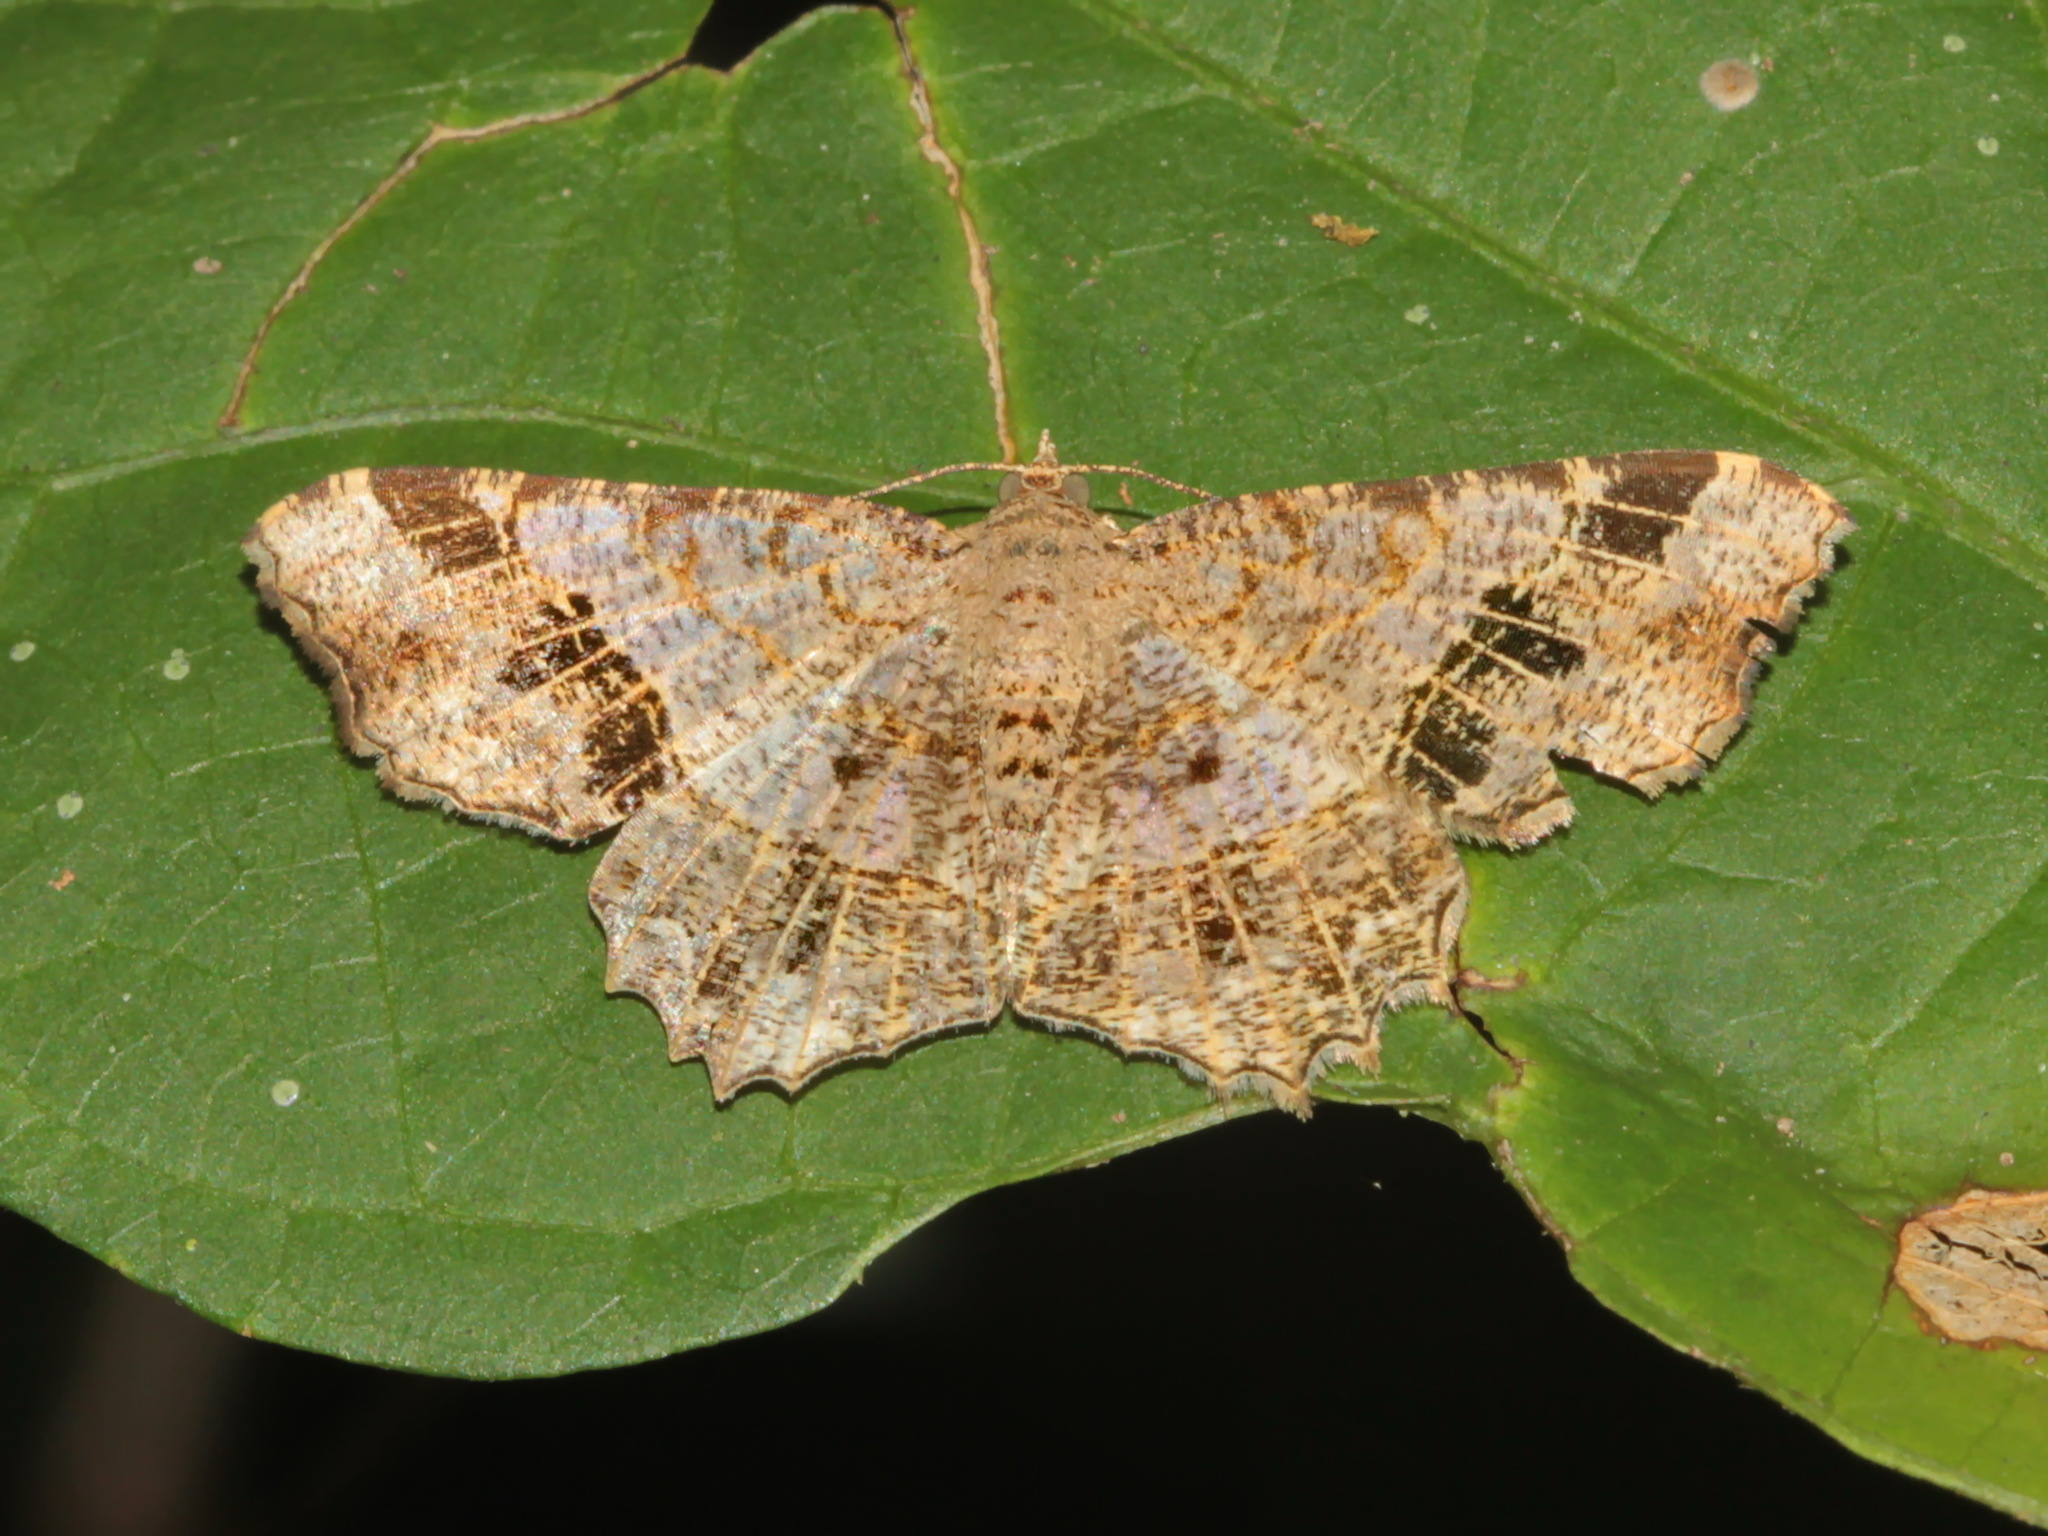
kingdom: Animalia
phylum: Arthropoda
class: Insecta
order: Lepidoptera
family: Geometridae
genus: Chiasmia
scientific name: Chiasmia avitusaria
